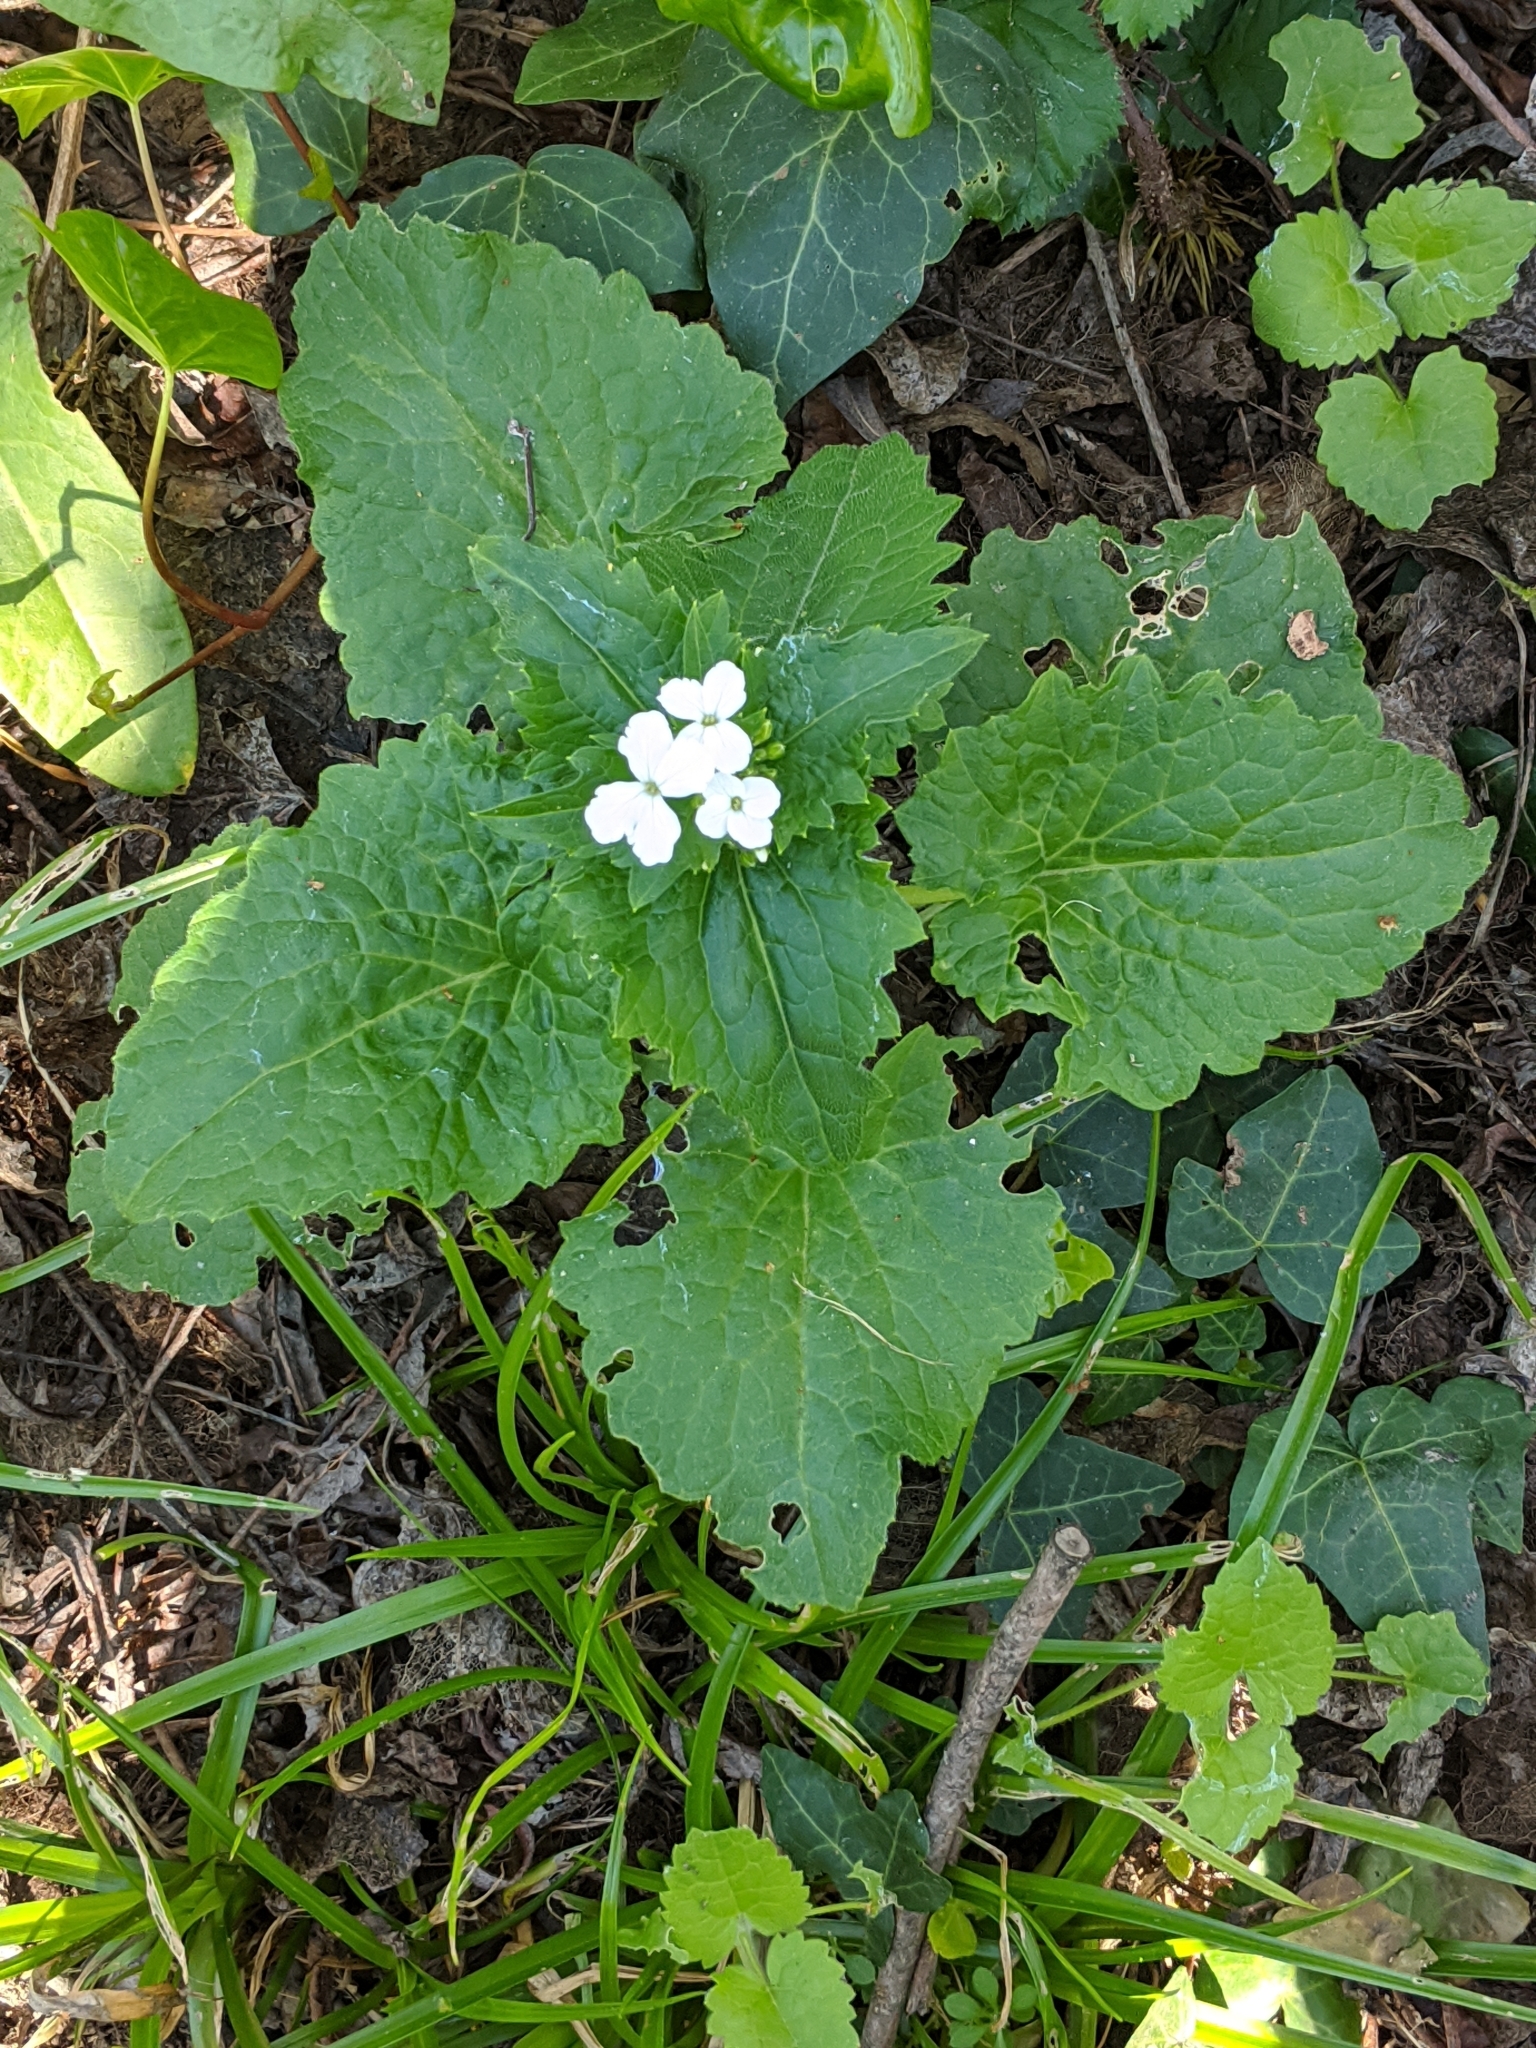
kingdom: Plantae
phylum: Tracheophyta
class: Magnoliopsida
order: Brassicales
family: Brassicaceae
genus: Lunaria
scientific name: Lunaria annua
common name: Honesty
